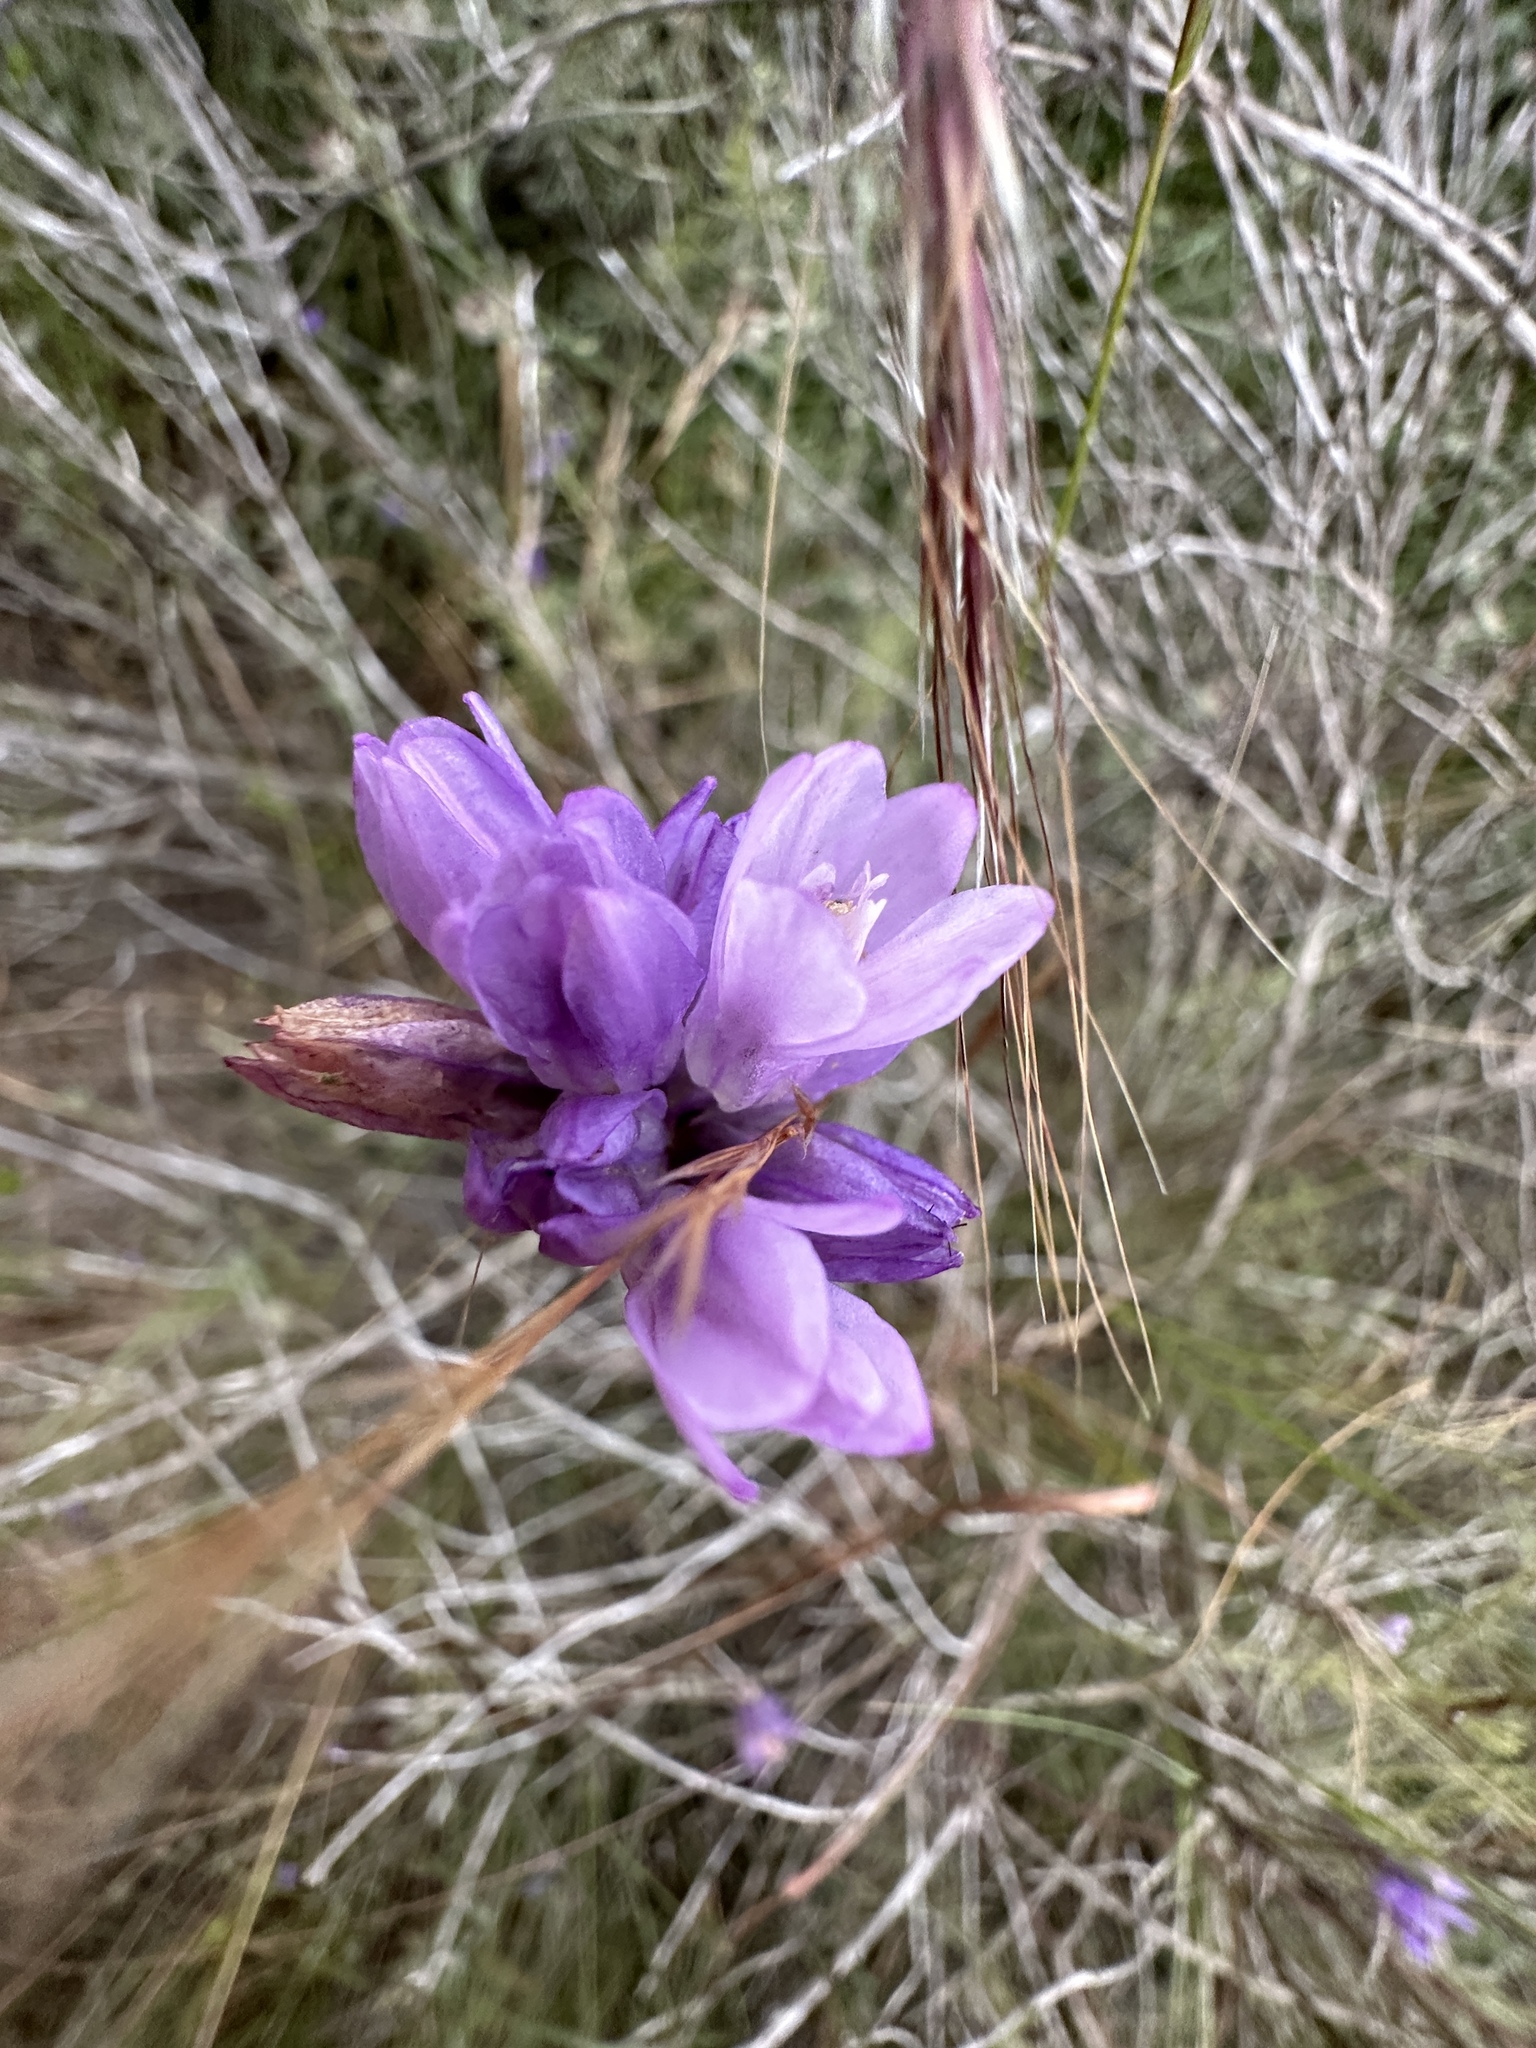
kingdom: Plantae
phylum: Tracheophyta
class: Liliopsida
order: Asparagales
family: Asparagaceae
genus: Dipterostemon
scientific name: Dipterostemon capitatus
